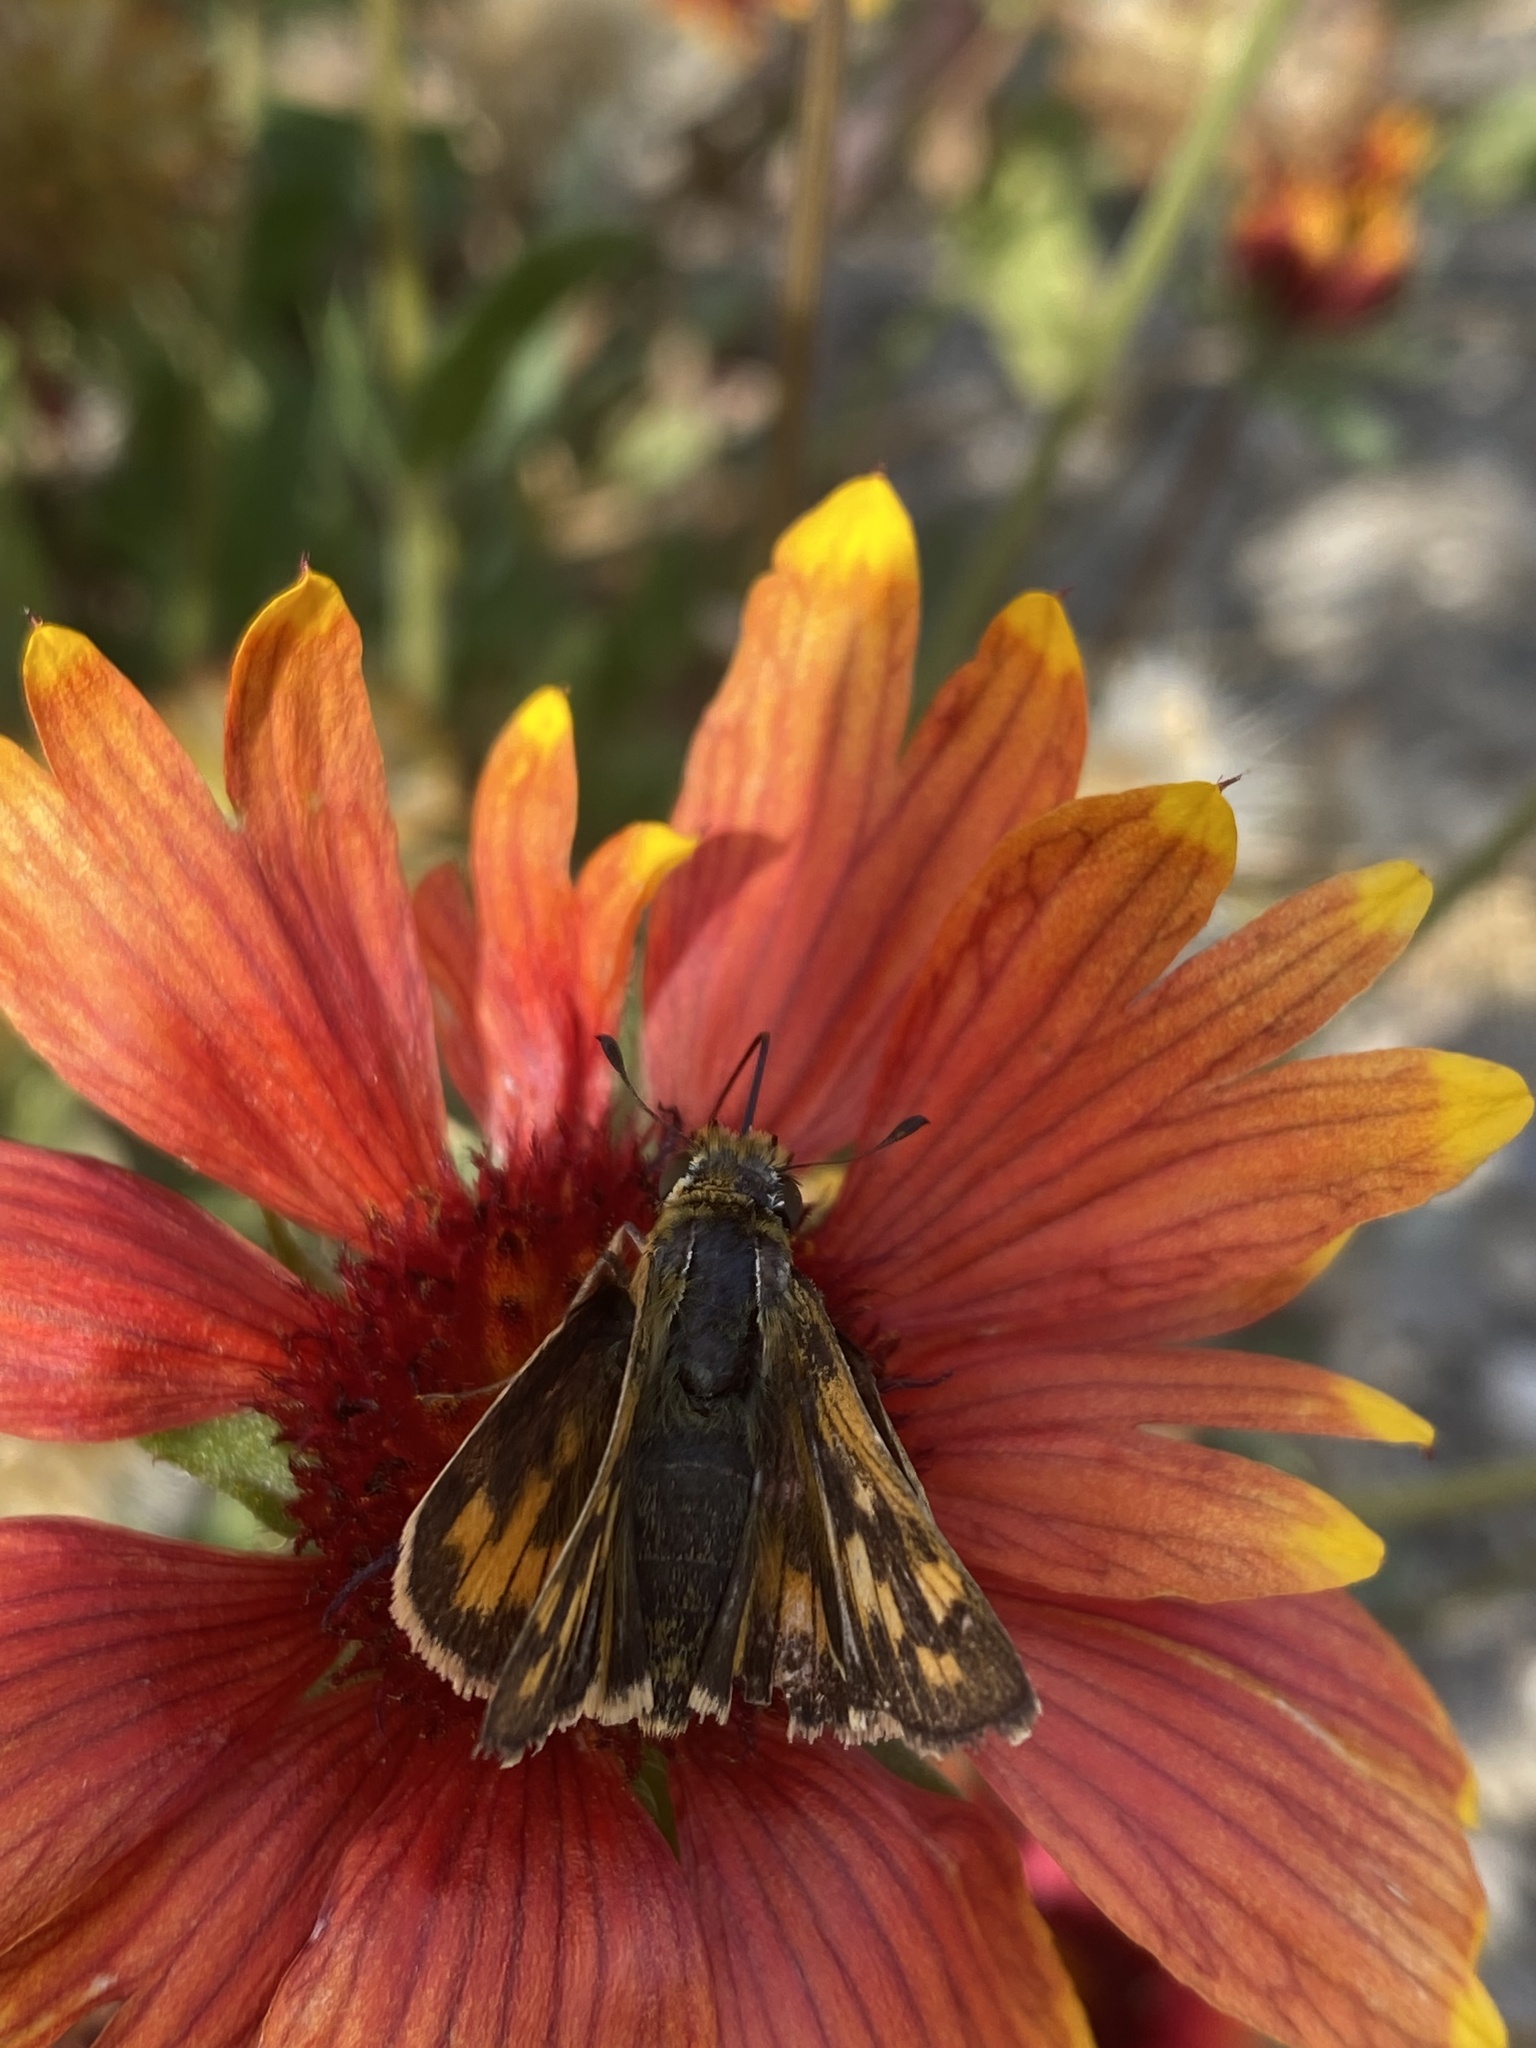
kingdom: Animalia
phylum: Arthropoda
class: Insecta
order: Lepidoptera
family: Hesperiidae
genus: Hylephila
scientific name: Hylephila phyleus
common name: Fiery skipper
